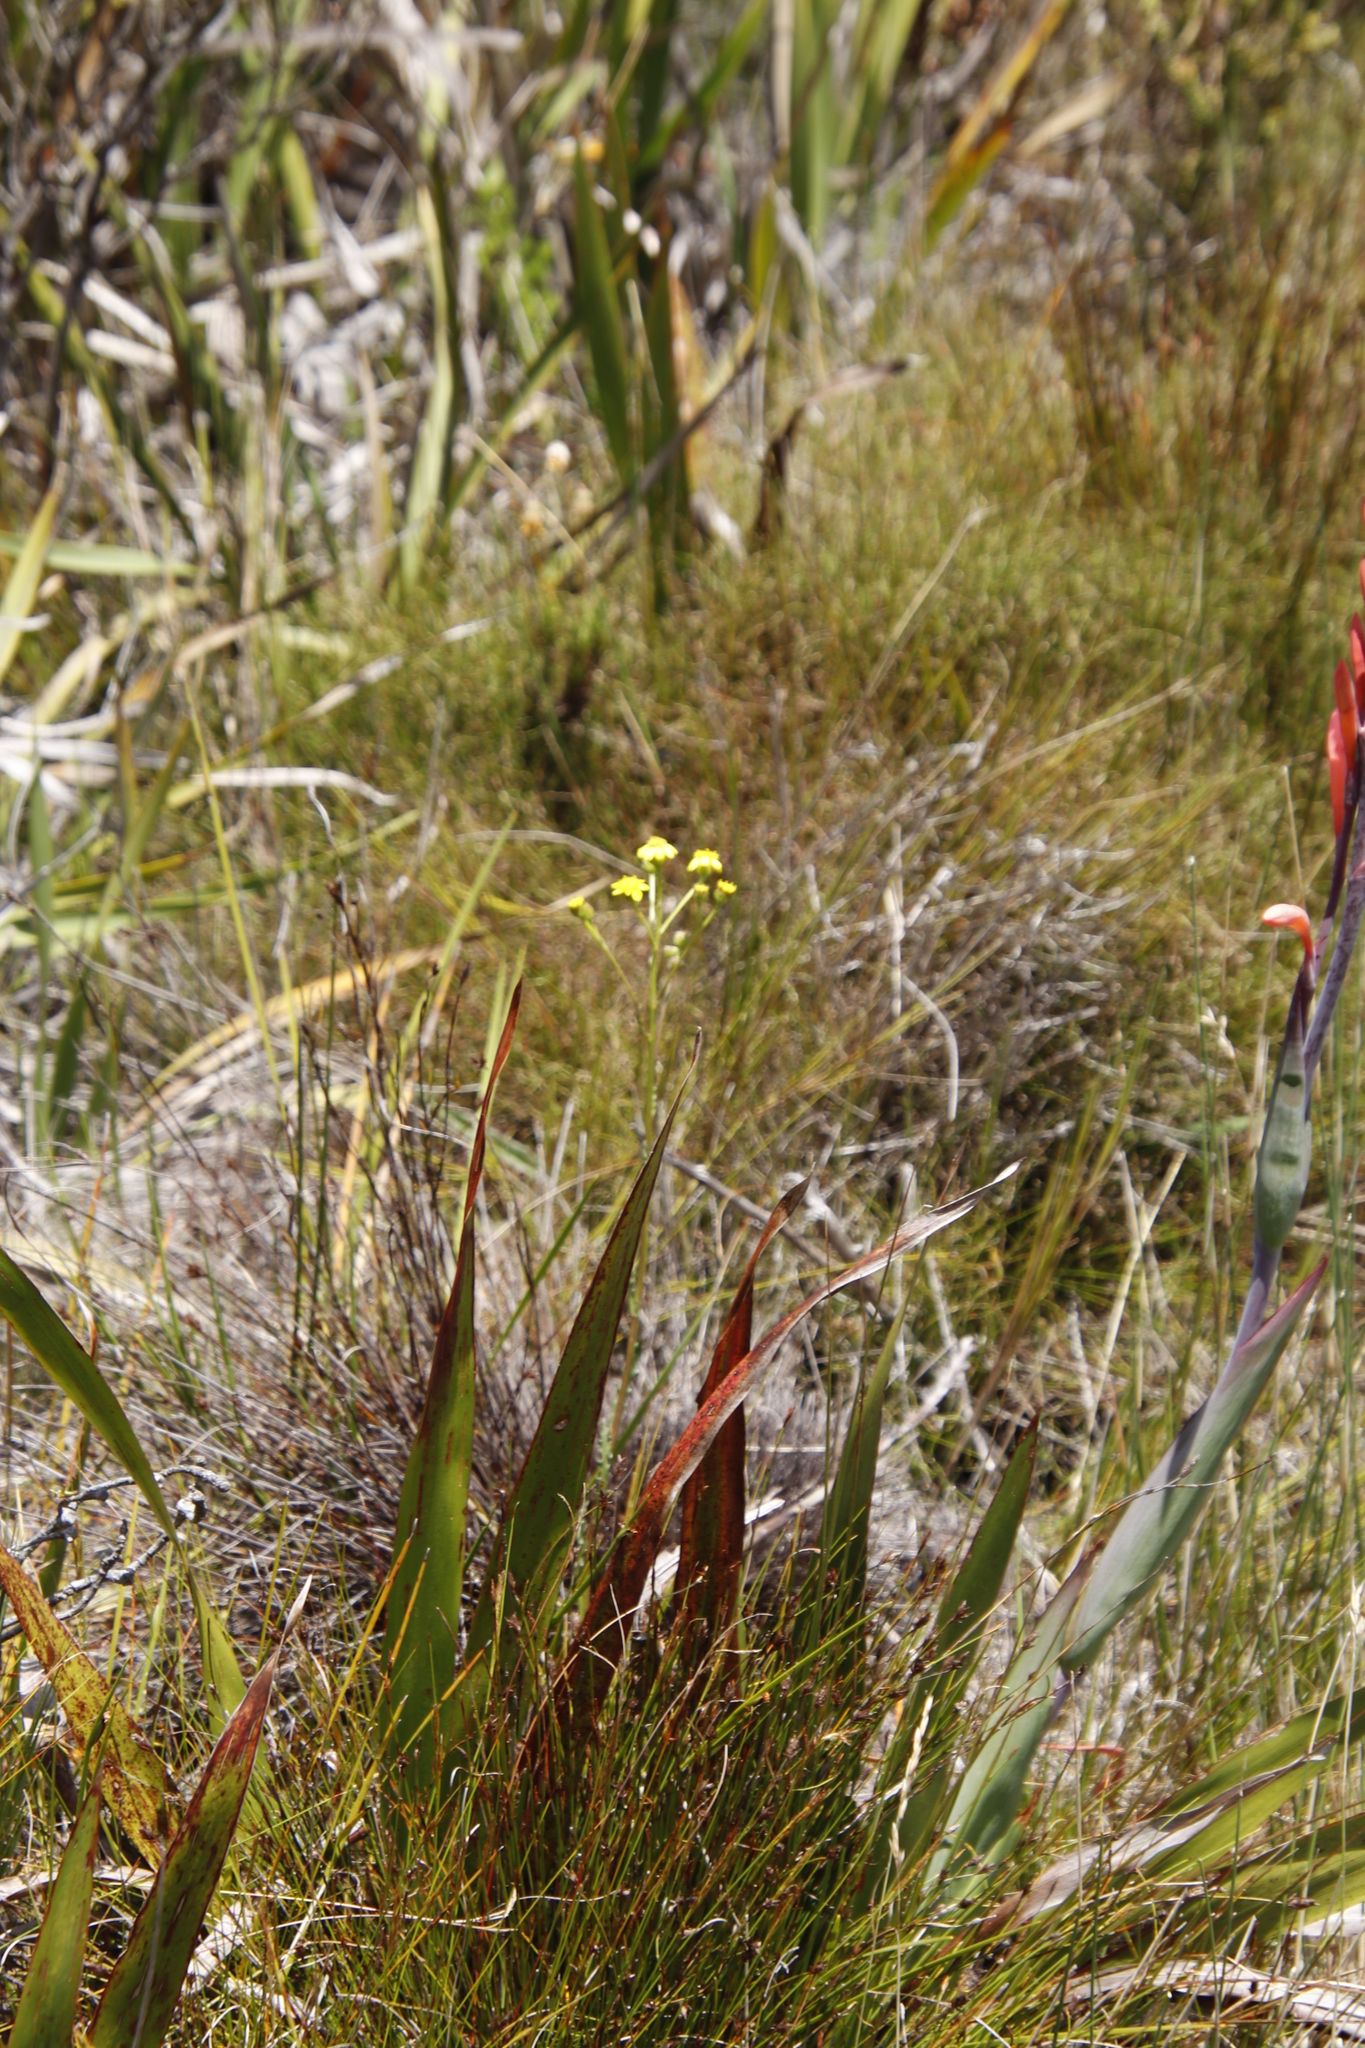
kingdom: Plantae
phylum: Tracheophyta
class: Magnoliopsida
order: Asterales
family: Asteraceae
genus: Senecio
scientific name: Senecio variifolius
